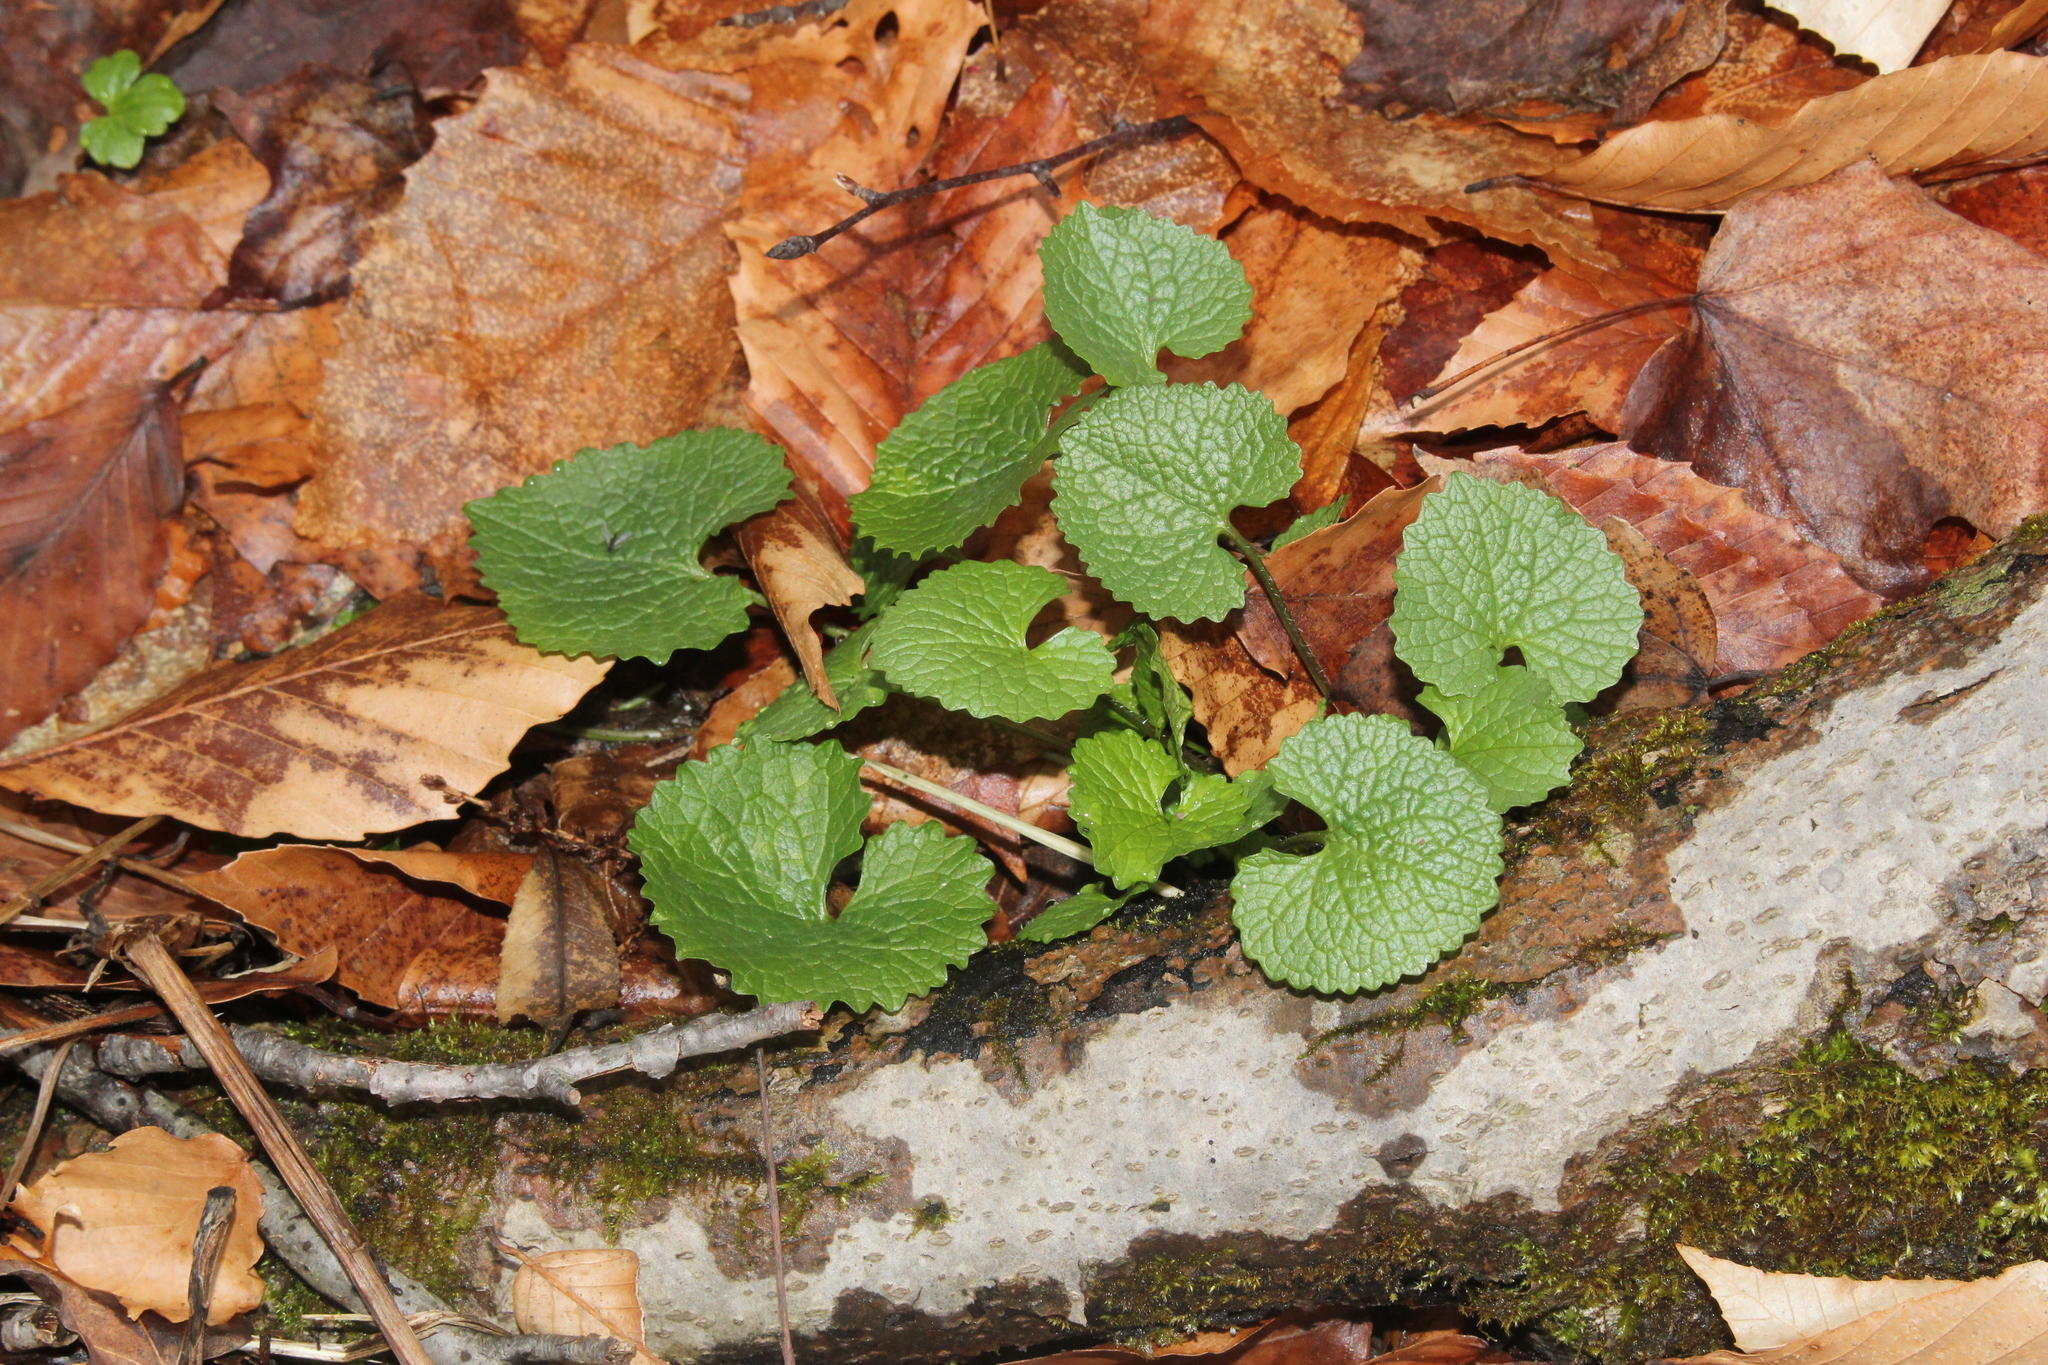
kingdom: Plantae
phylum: Tracheophyta
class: Magnoliopsida
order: Brassicales
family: Brassicaceae
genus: Alliaria
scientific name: Alliaria petiolata
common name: Garlic mustard
